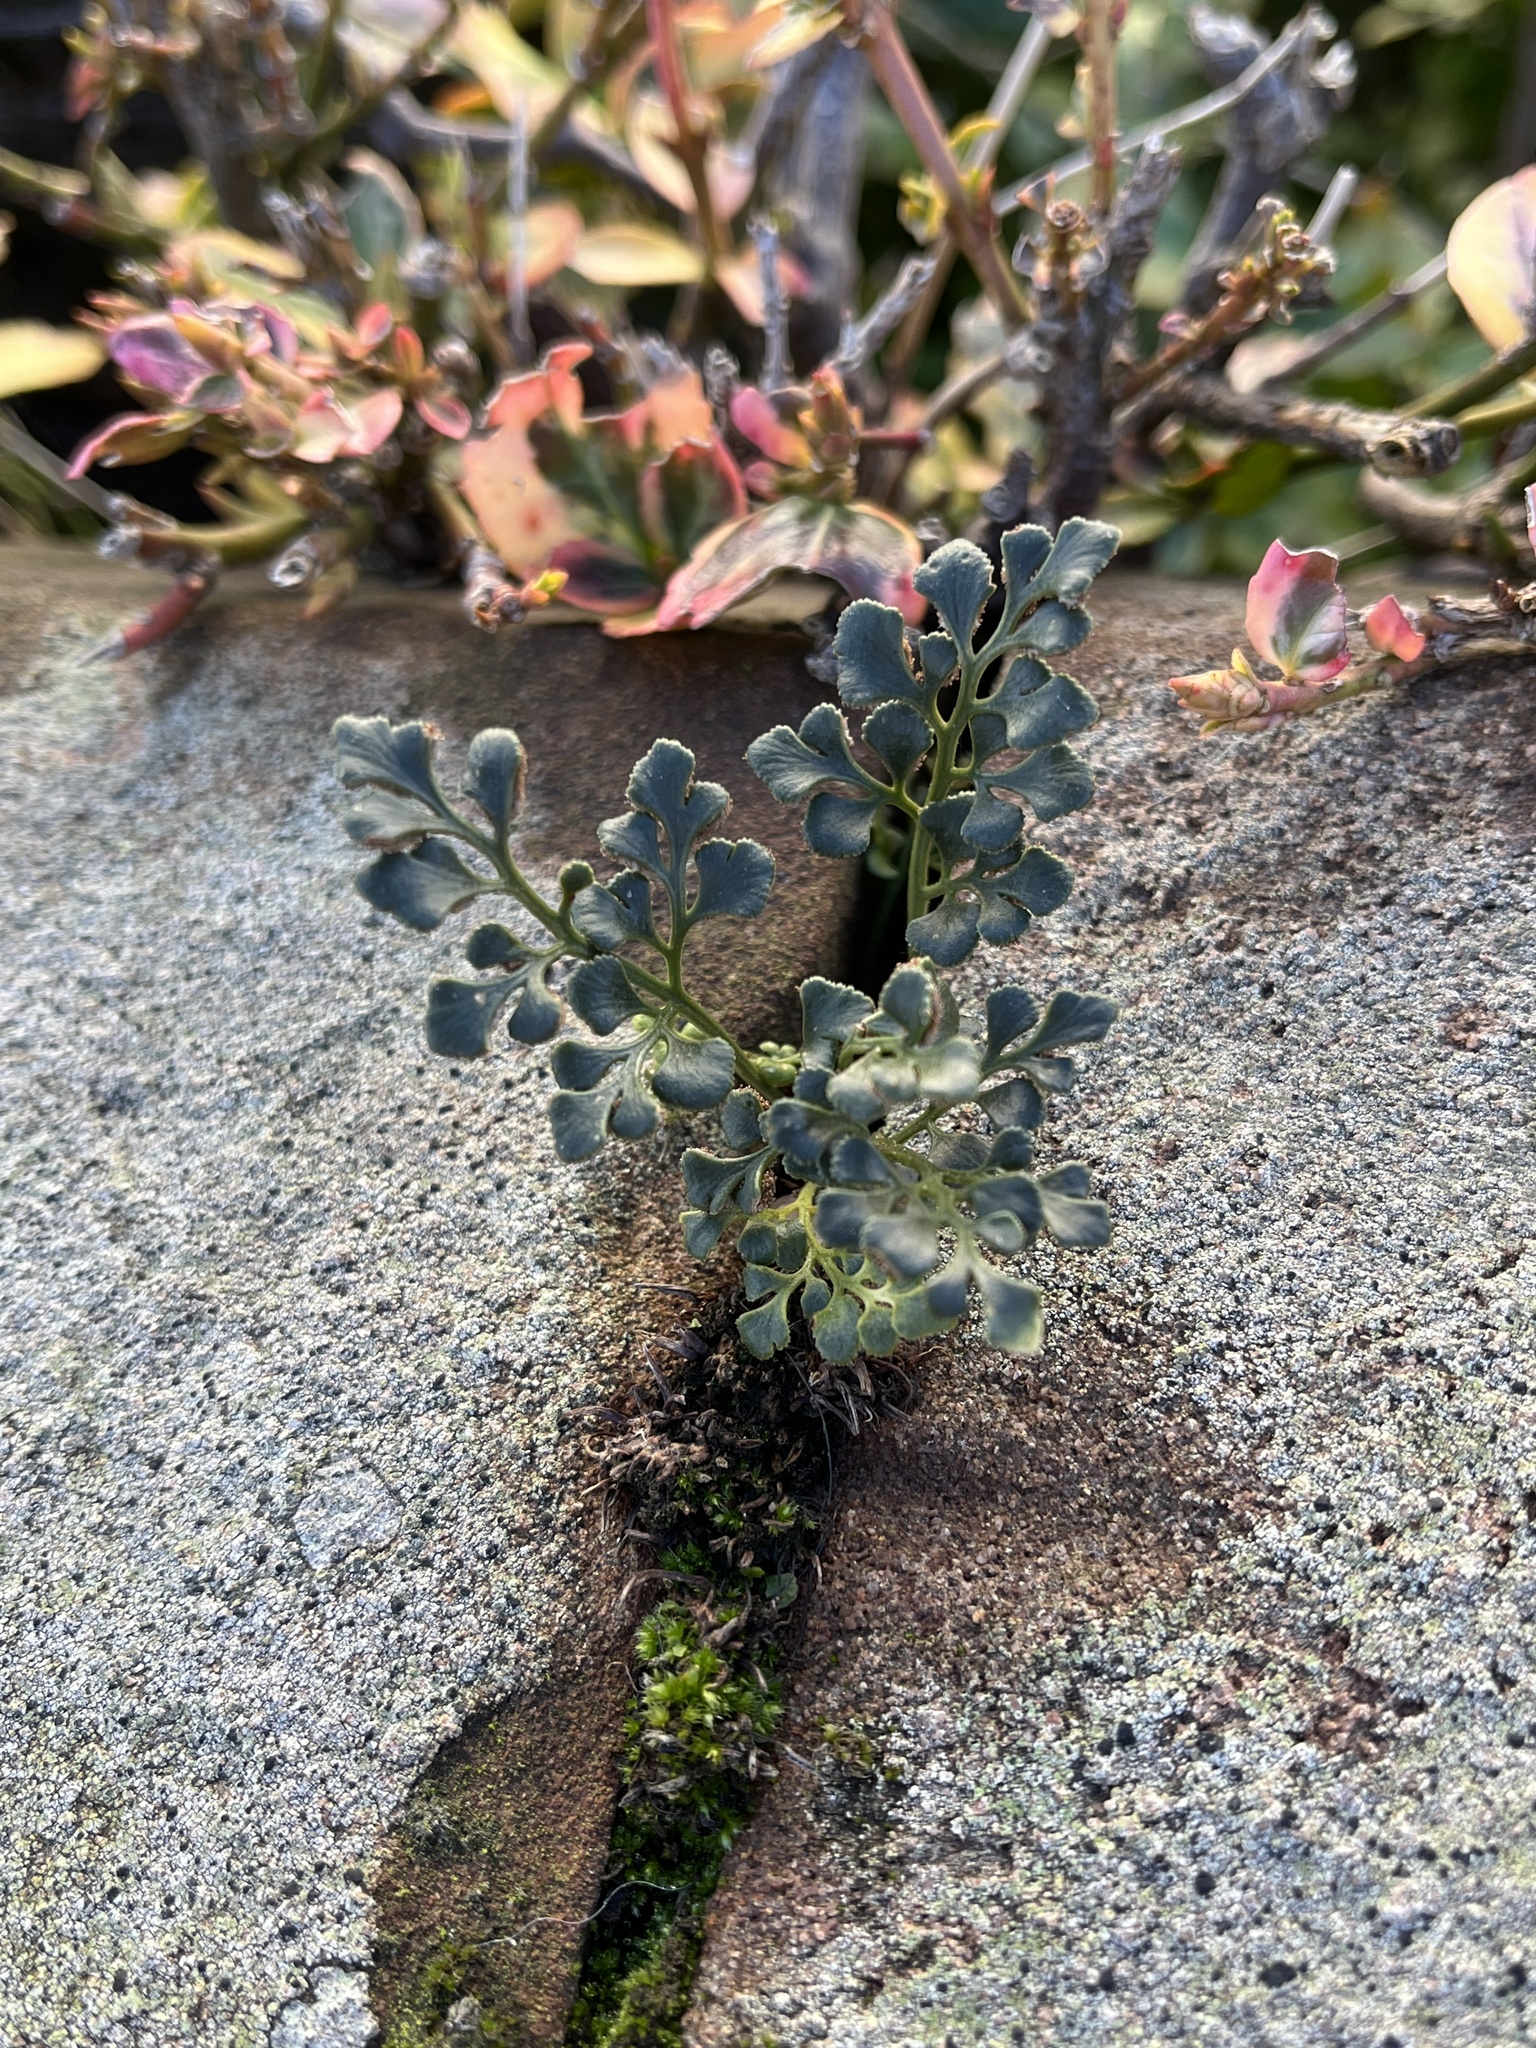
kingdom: Plantae
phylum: Tracheophyta
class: Polypodiopsida
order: Polypodiales
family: Aspleniaceae
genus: Asplenium
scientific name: Asplenium ruta-muraria
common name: Wall-rue
